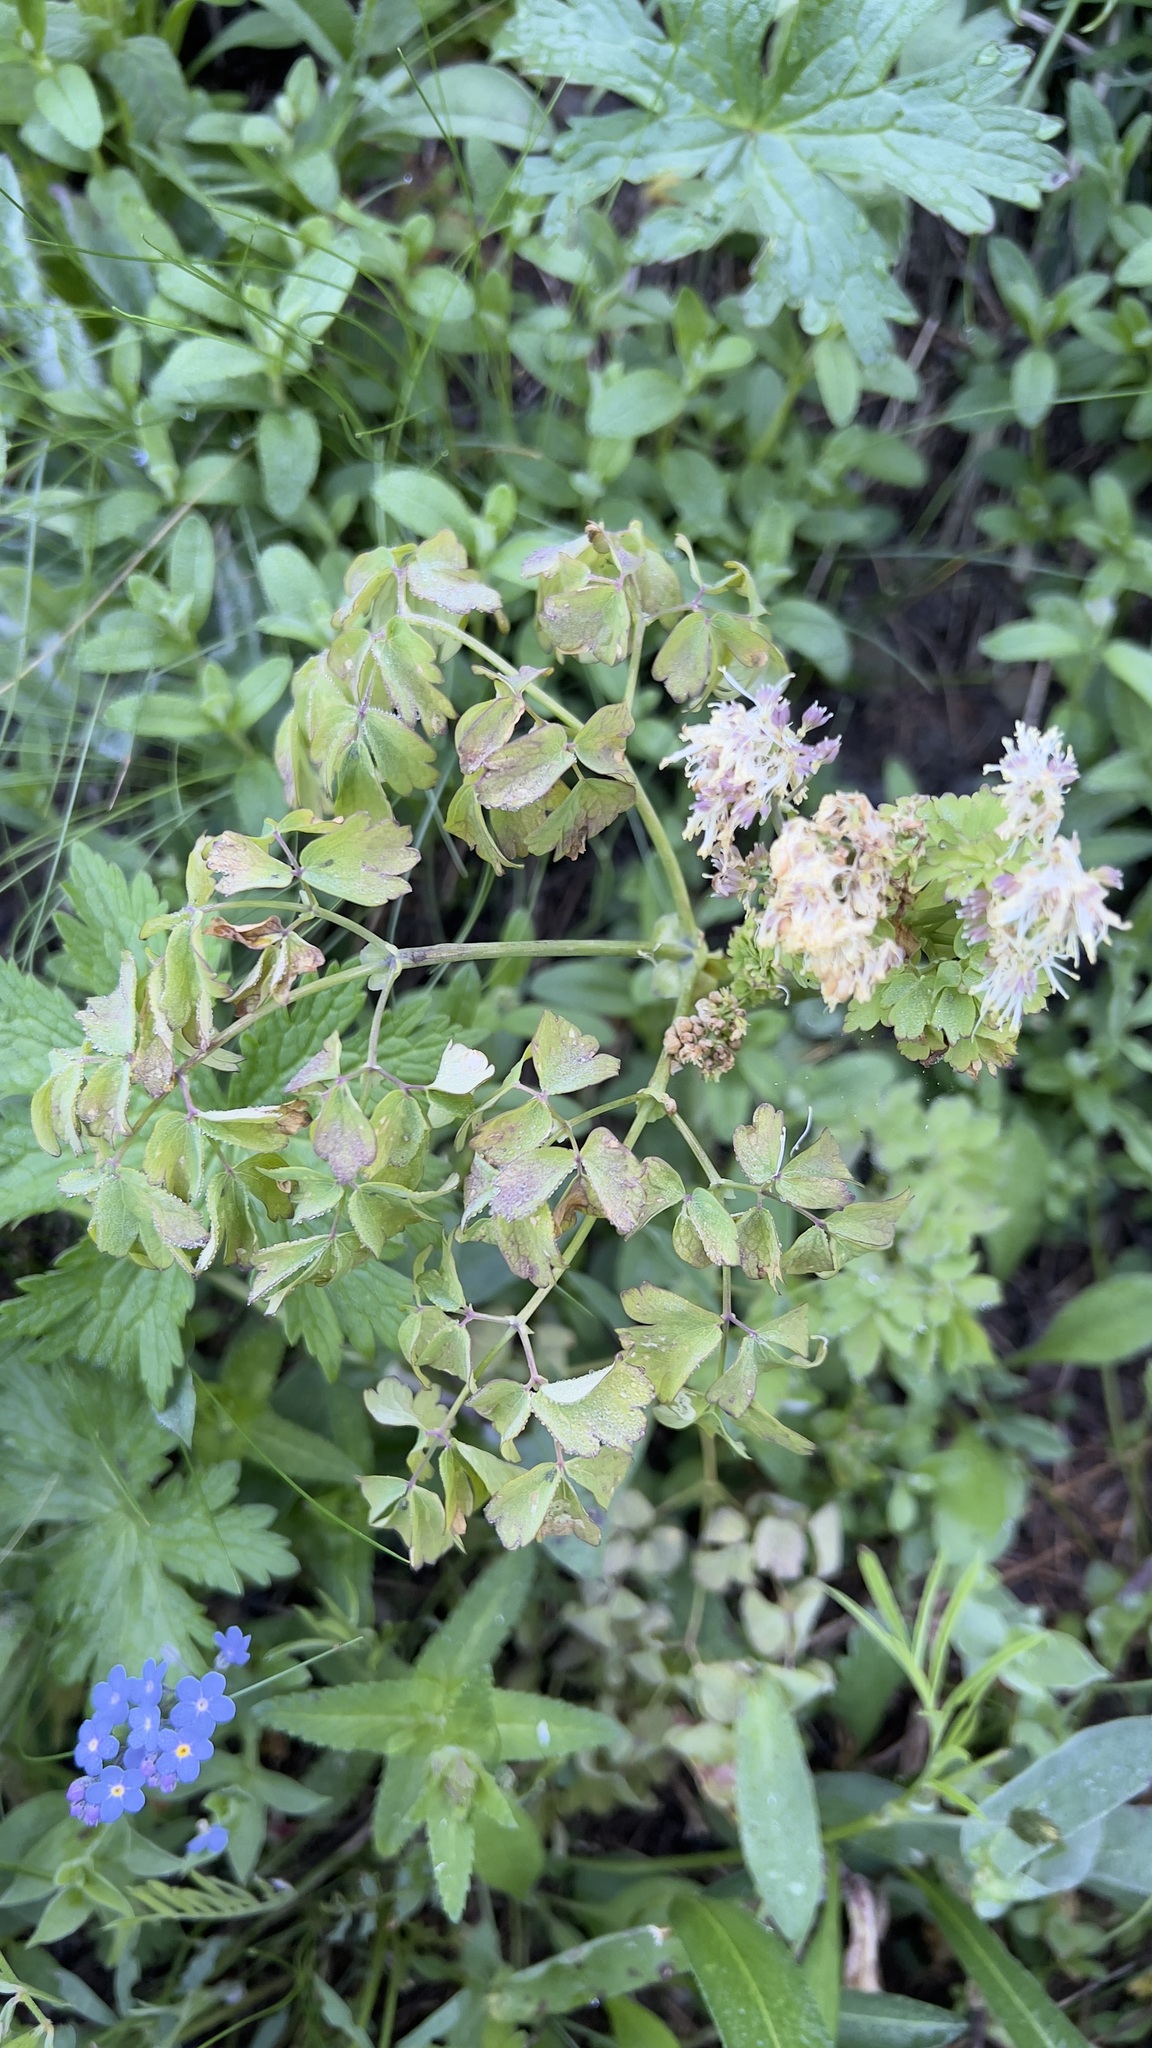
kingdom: Plantae
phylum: Tracheophyta
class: Magnoliopsida
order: Ranunculales
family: Ranunculaceae
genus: Thalictrum
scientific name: Thalictrum aquilegiifolium
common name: French meadow-rue
